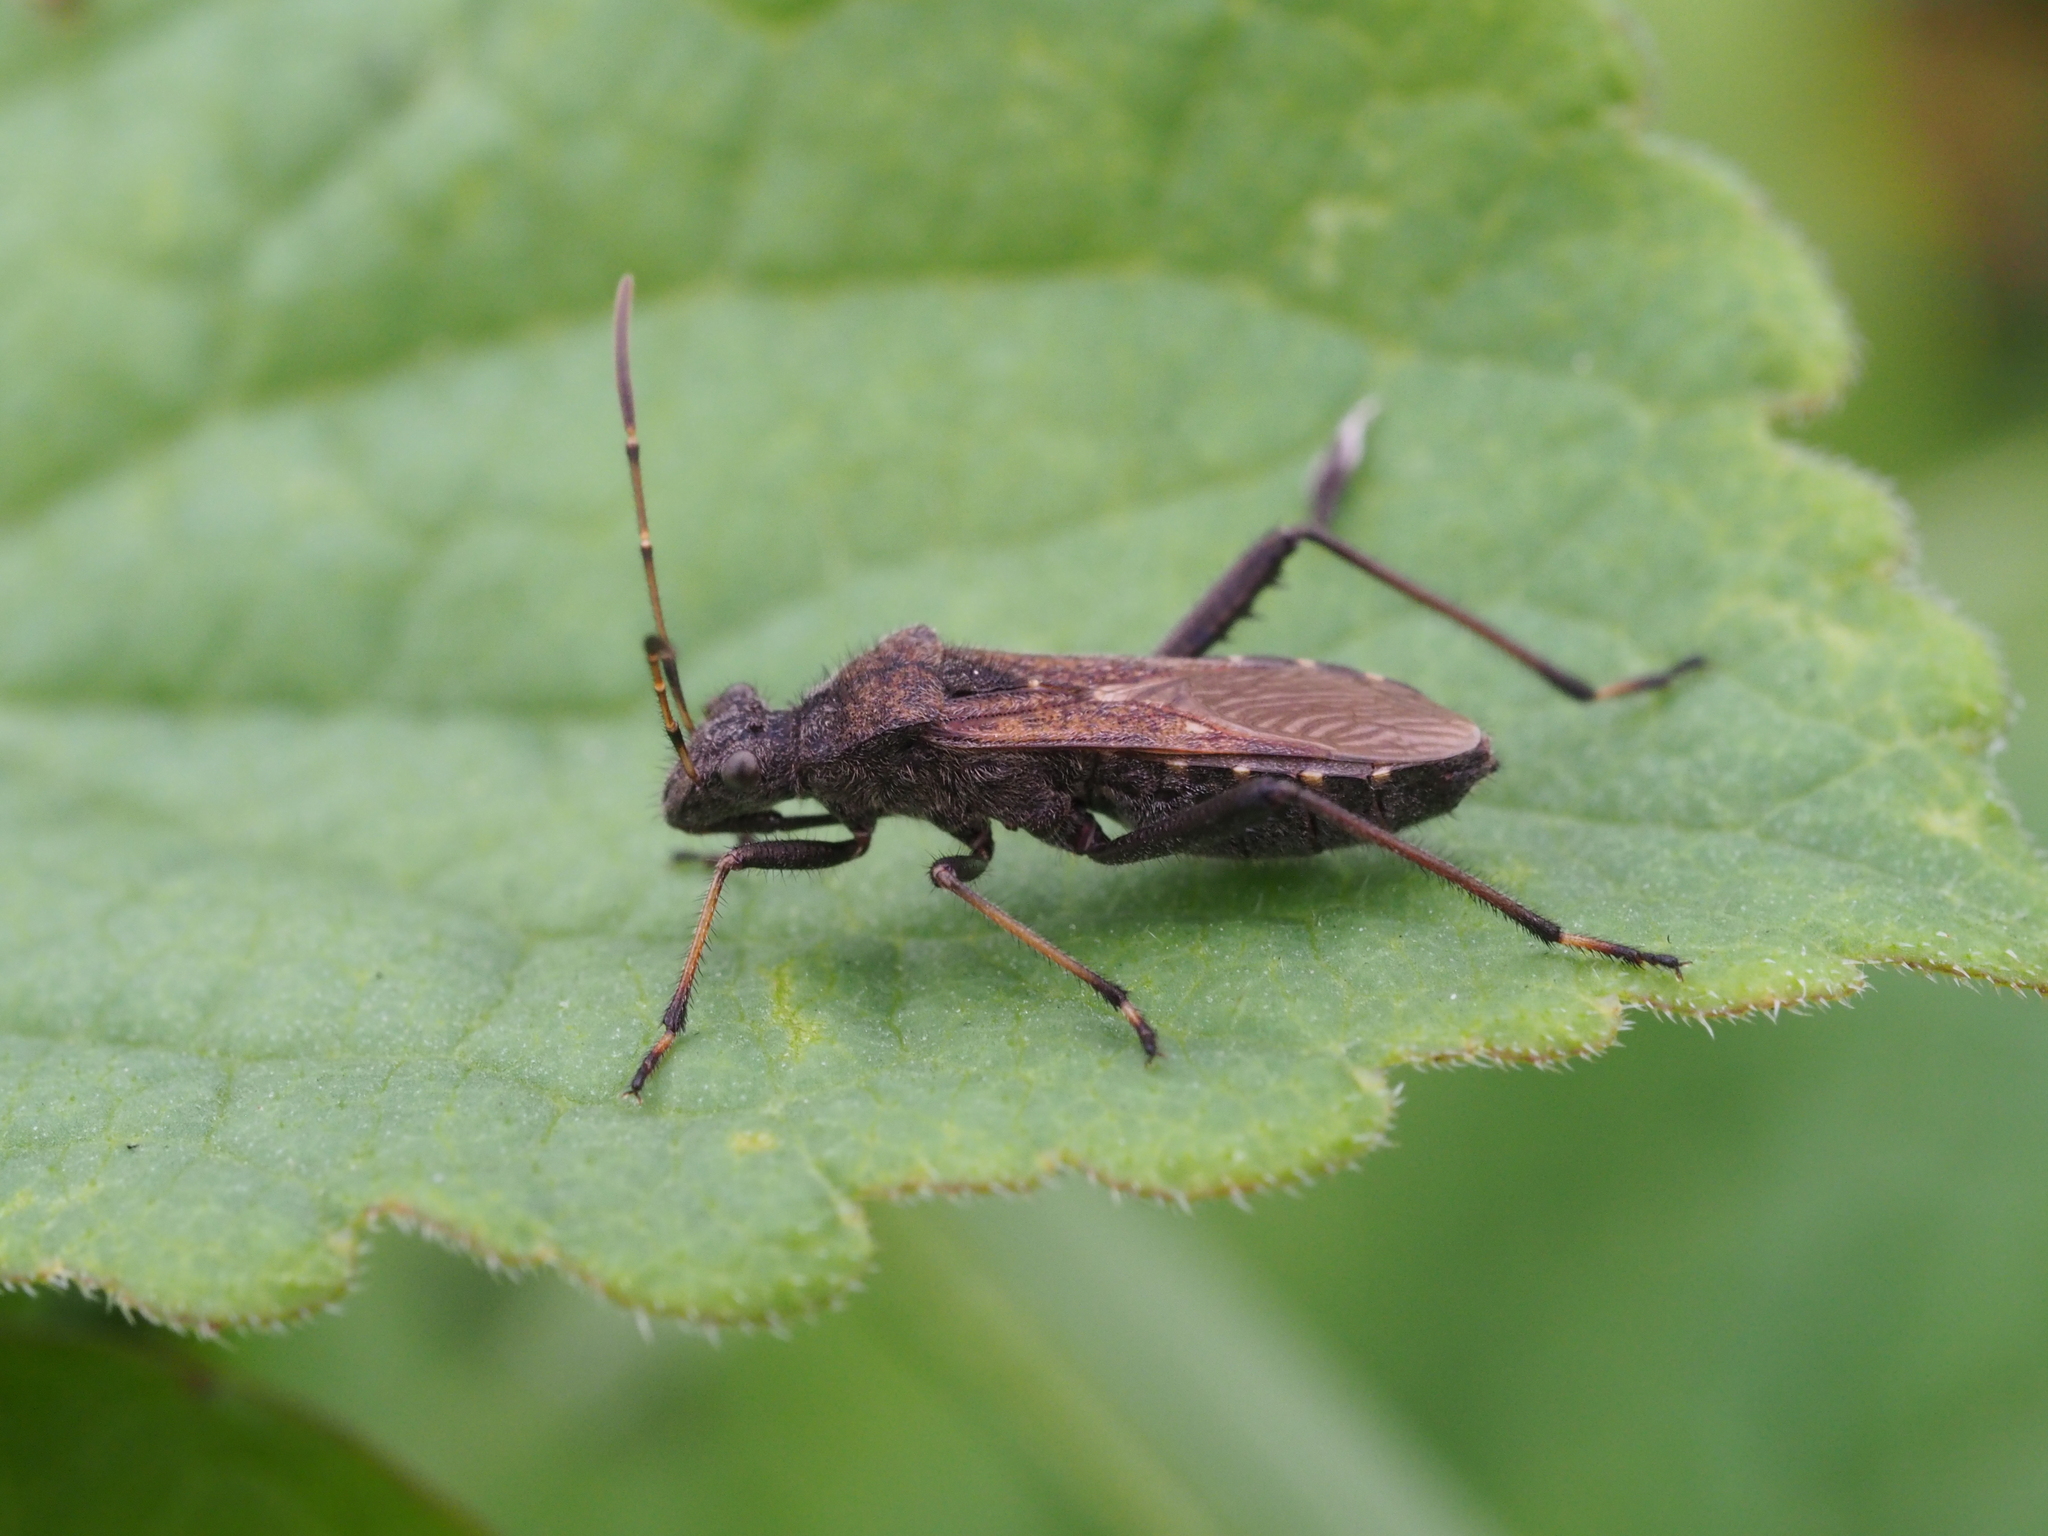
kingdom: Animalia
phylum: Arthropoda
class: Insecta
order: Hemiptera
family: Alydidae
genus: Alydus
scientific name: Alydus calcaratus
